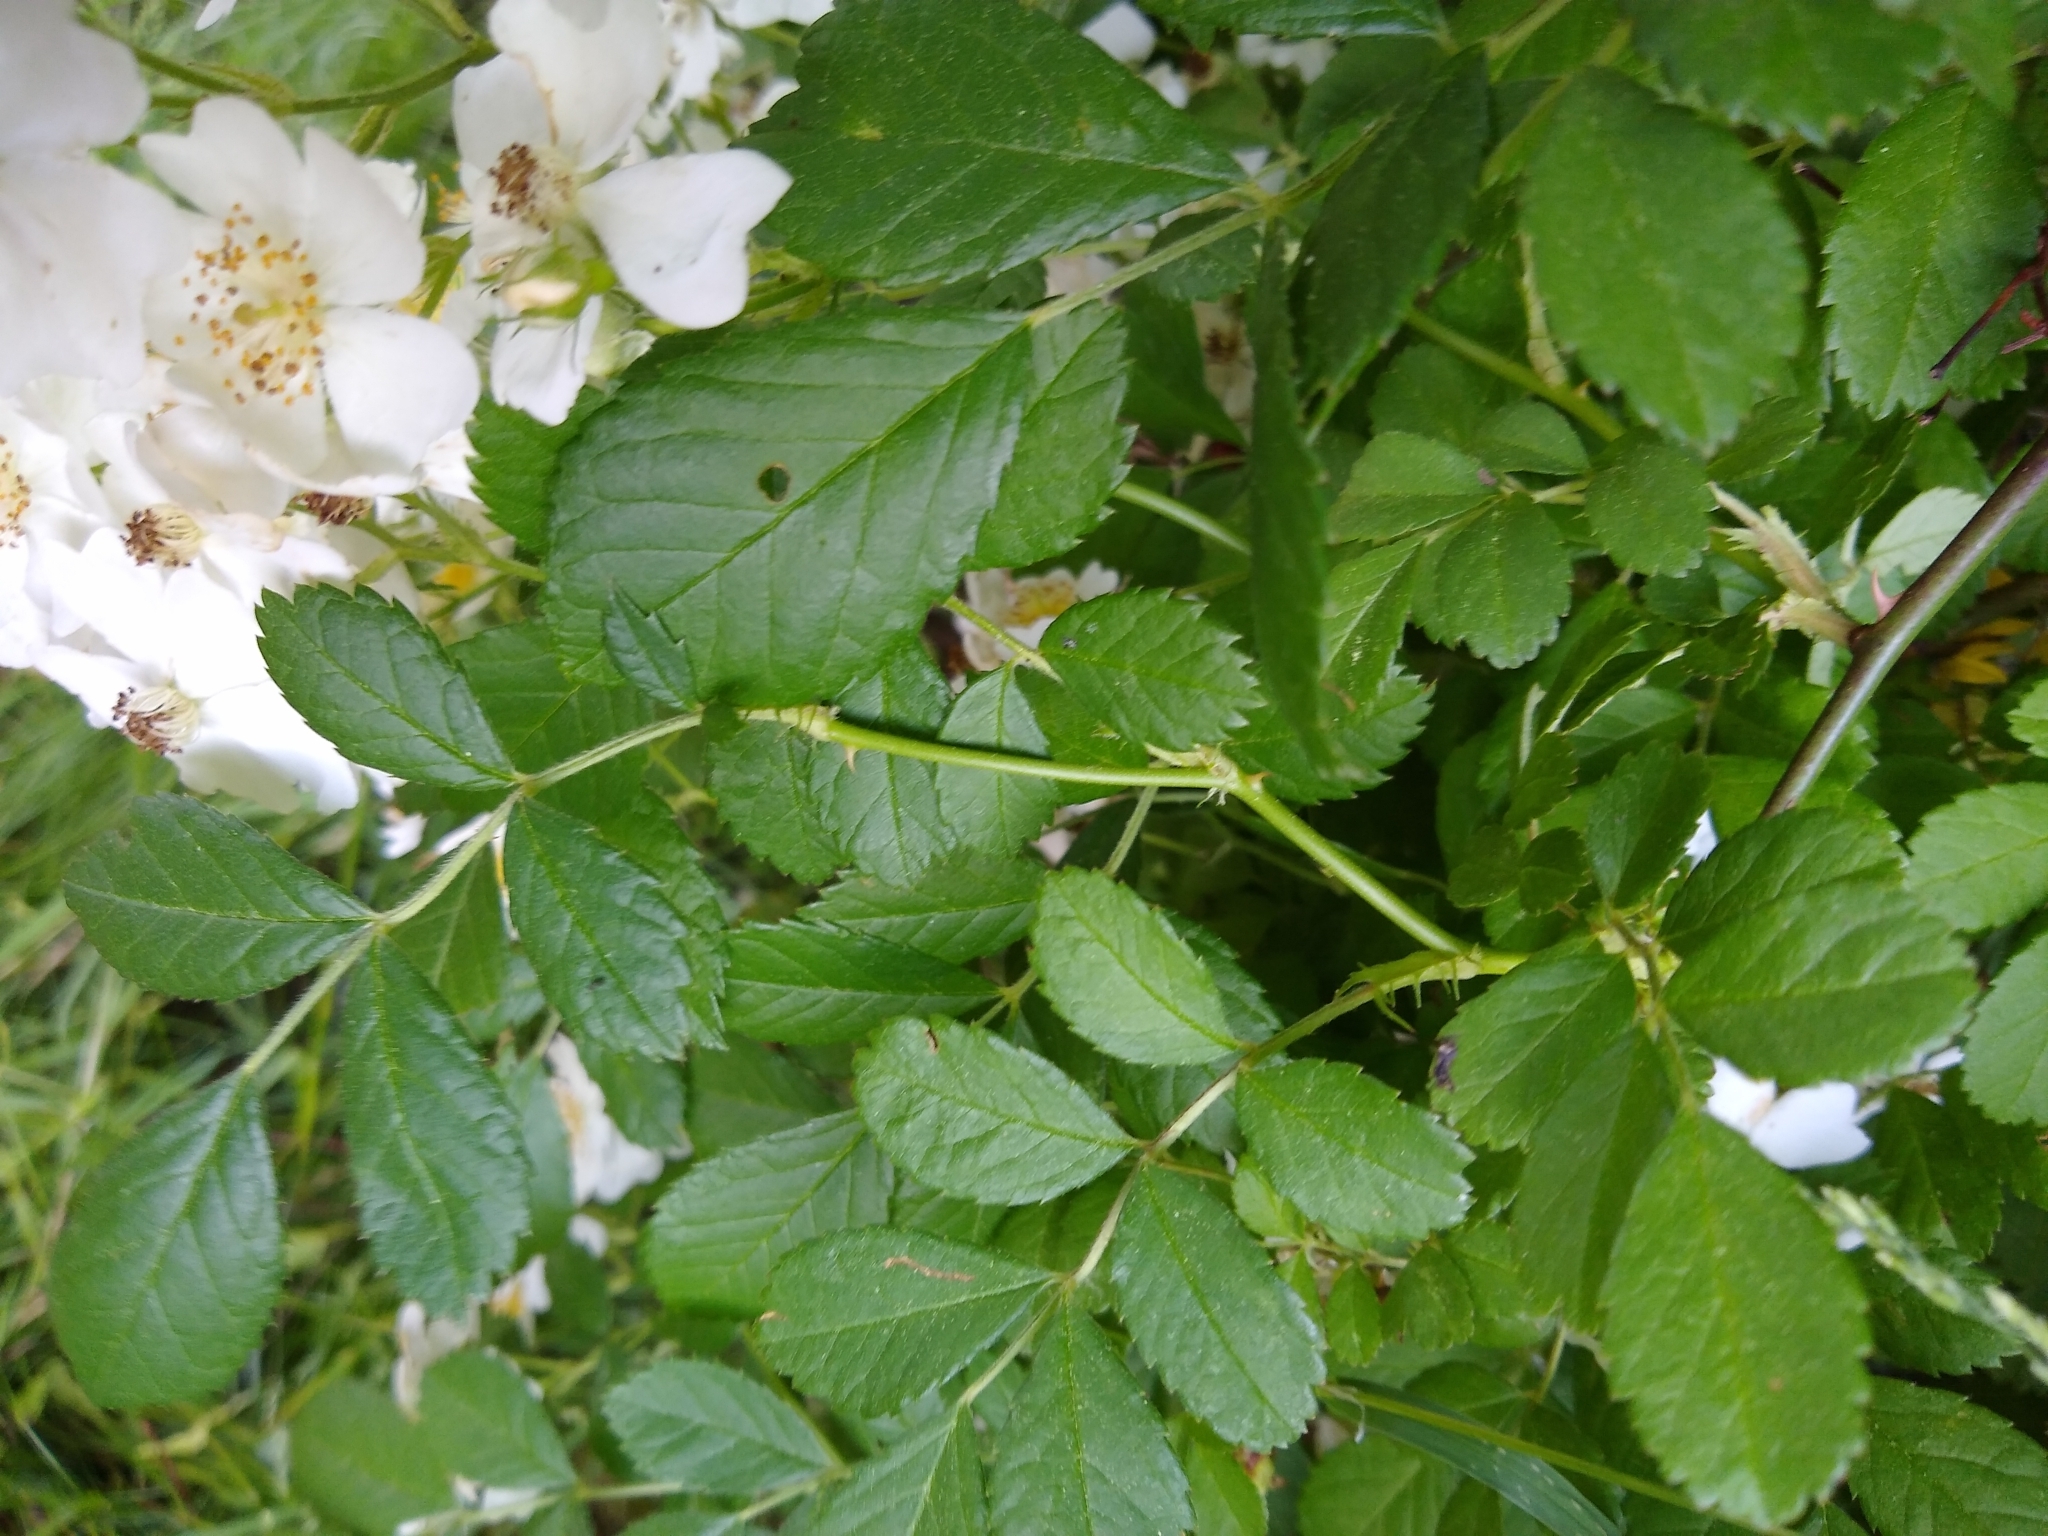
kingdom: Plantae
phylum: Tracheophyta
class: Magnoliopsida
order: Rosales
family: Rosaceae
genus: Rosa
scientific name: Rosa multiflora
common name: Multiflora rose
